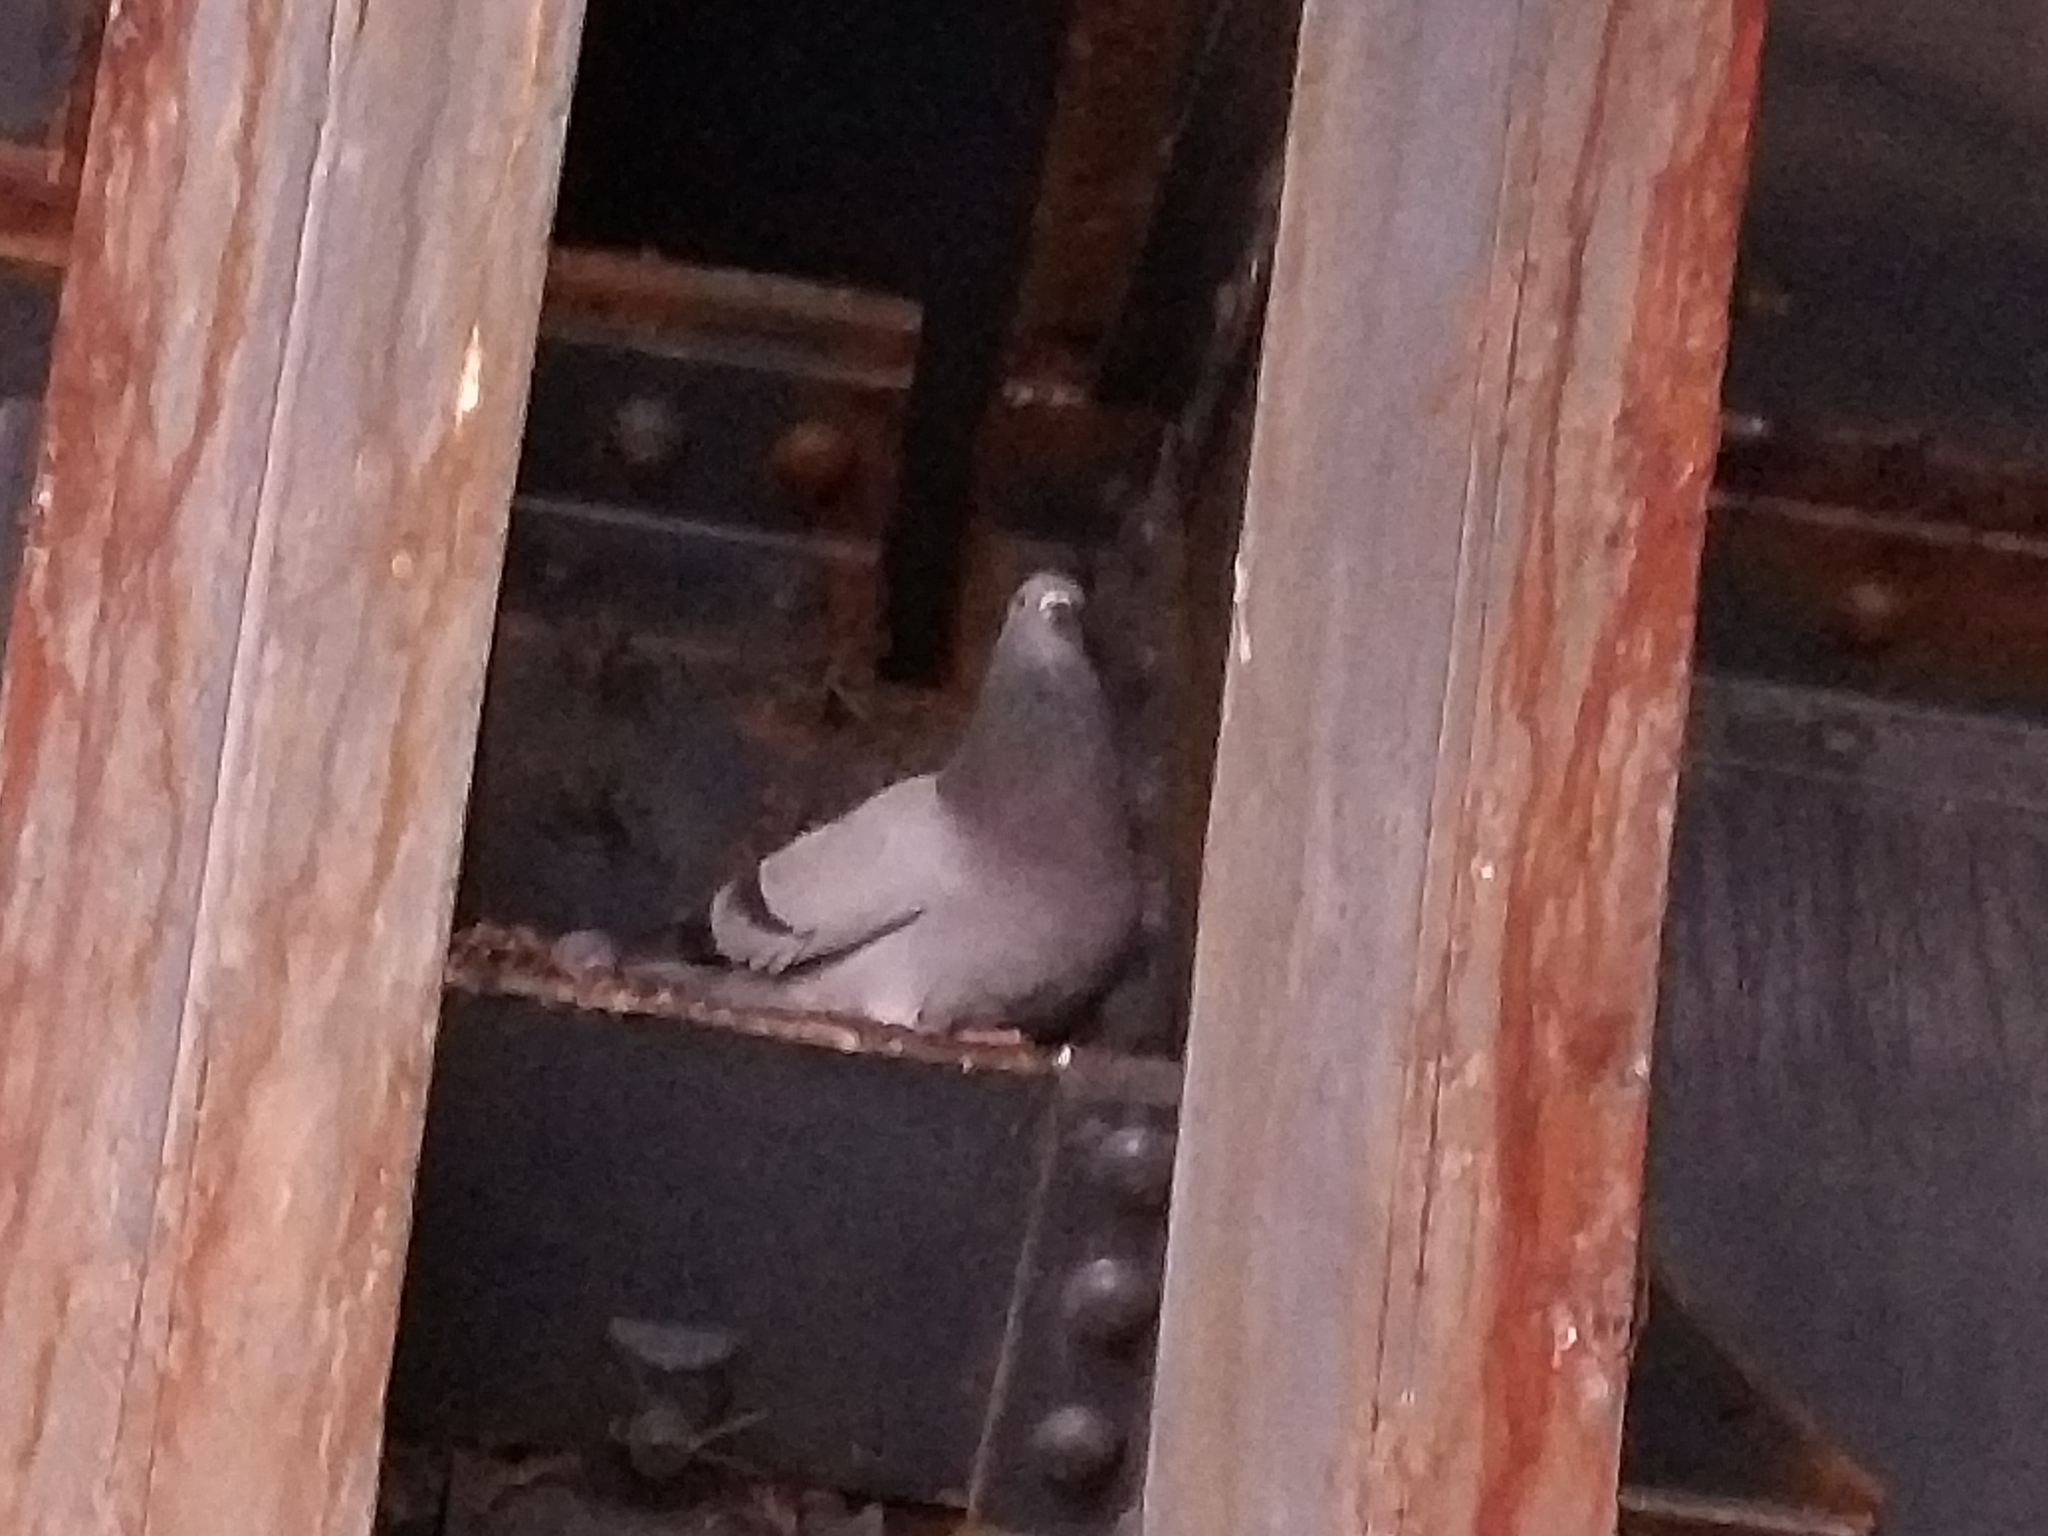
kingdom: Animalia
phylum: Chordata
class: Aves
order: Columbiformes
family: Columbidae
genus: Columba
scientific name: Columba livia
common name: Rock pigeon
